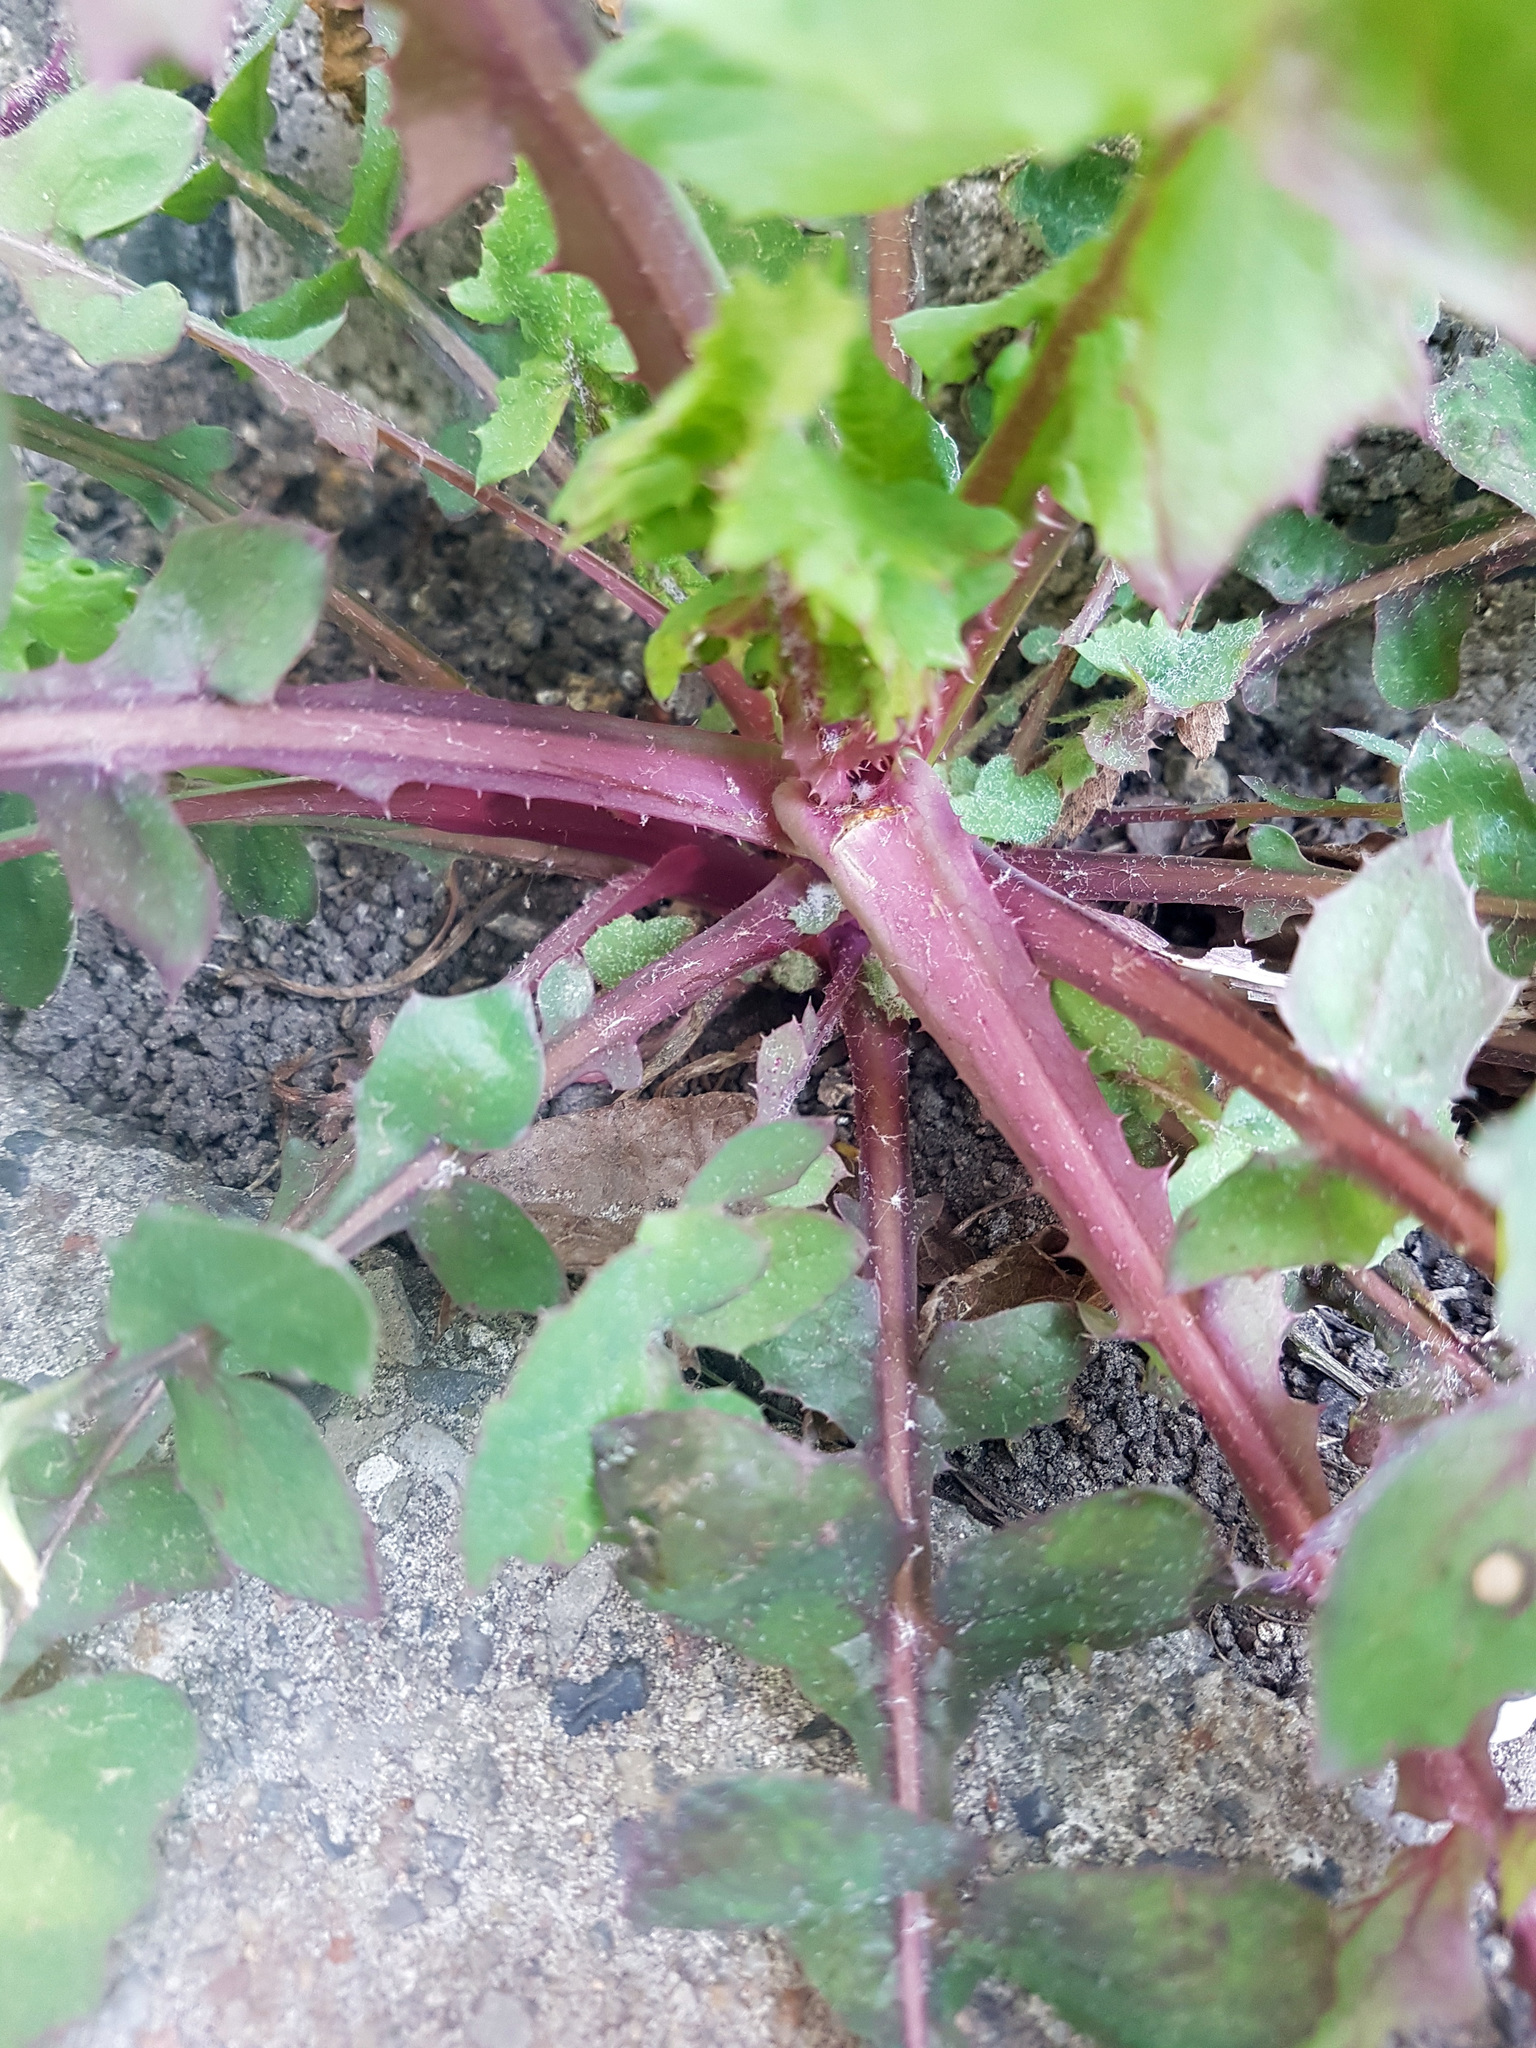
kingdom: Plantae
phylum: Tracheophyta
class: Magnoliopsida
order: Asterales
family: Asteraceae
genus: Sonchus
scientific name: Sonchus oleraceus
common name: Common sowthistle
